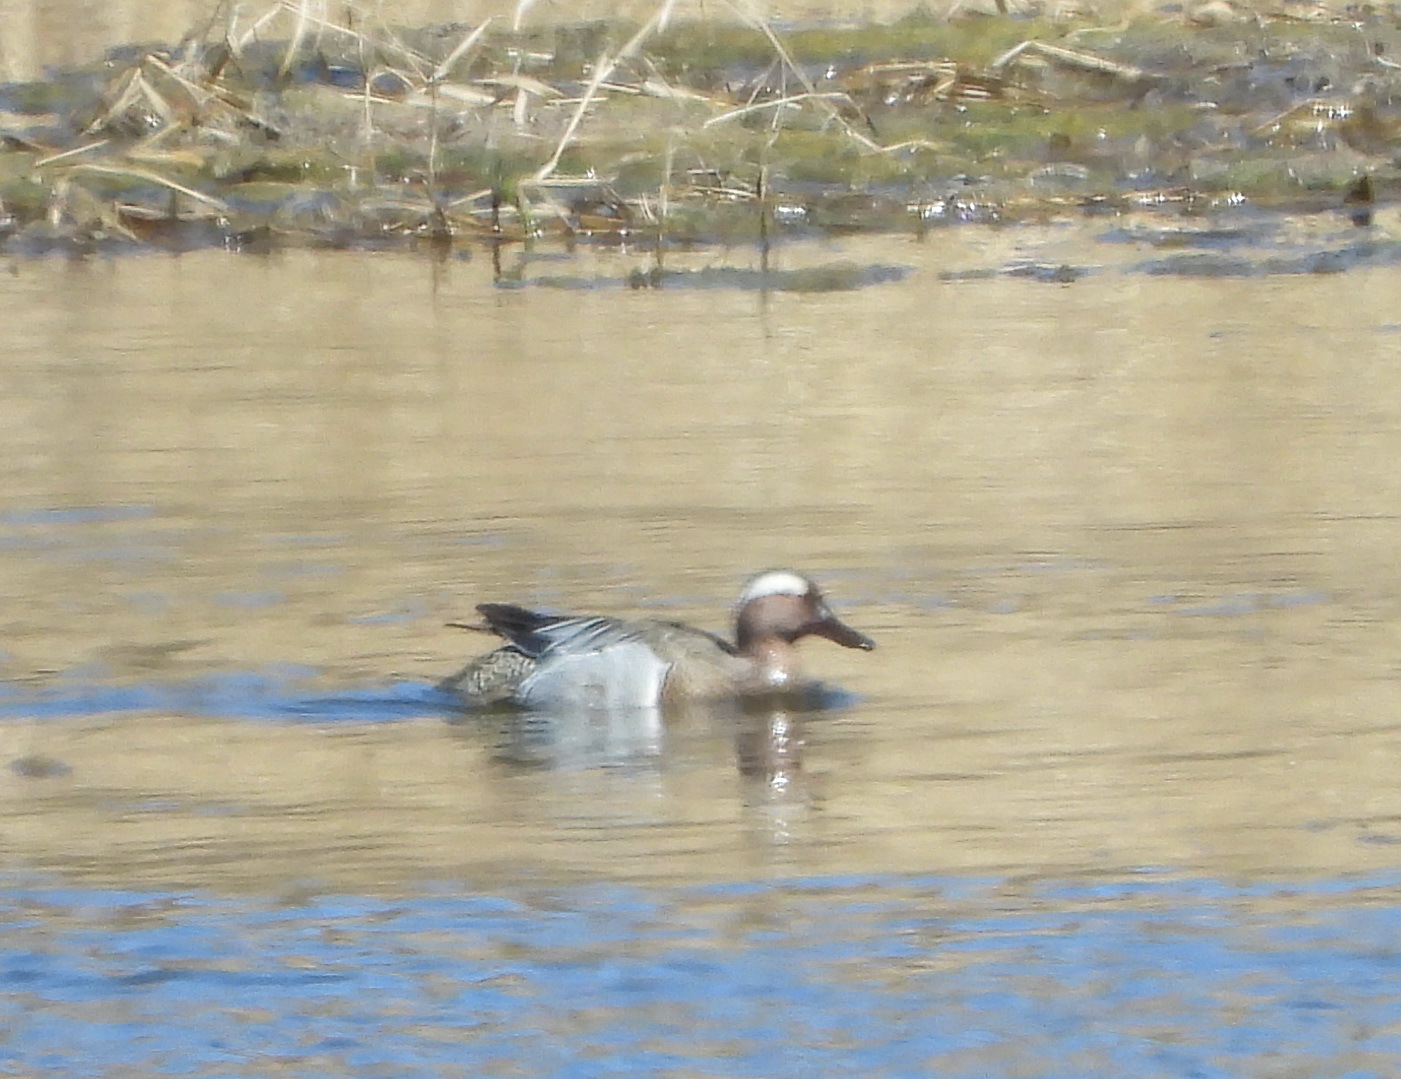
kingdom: Animalia
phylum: Chordata
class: Aves
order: Anseriformes
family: Anatidae
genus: Spatula
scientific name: Spatula querquedula
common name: Garganey
